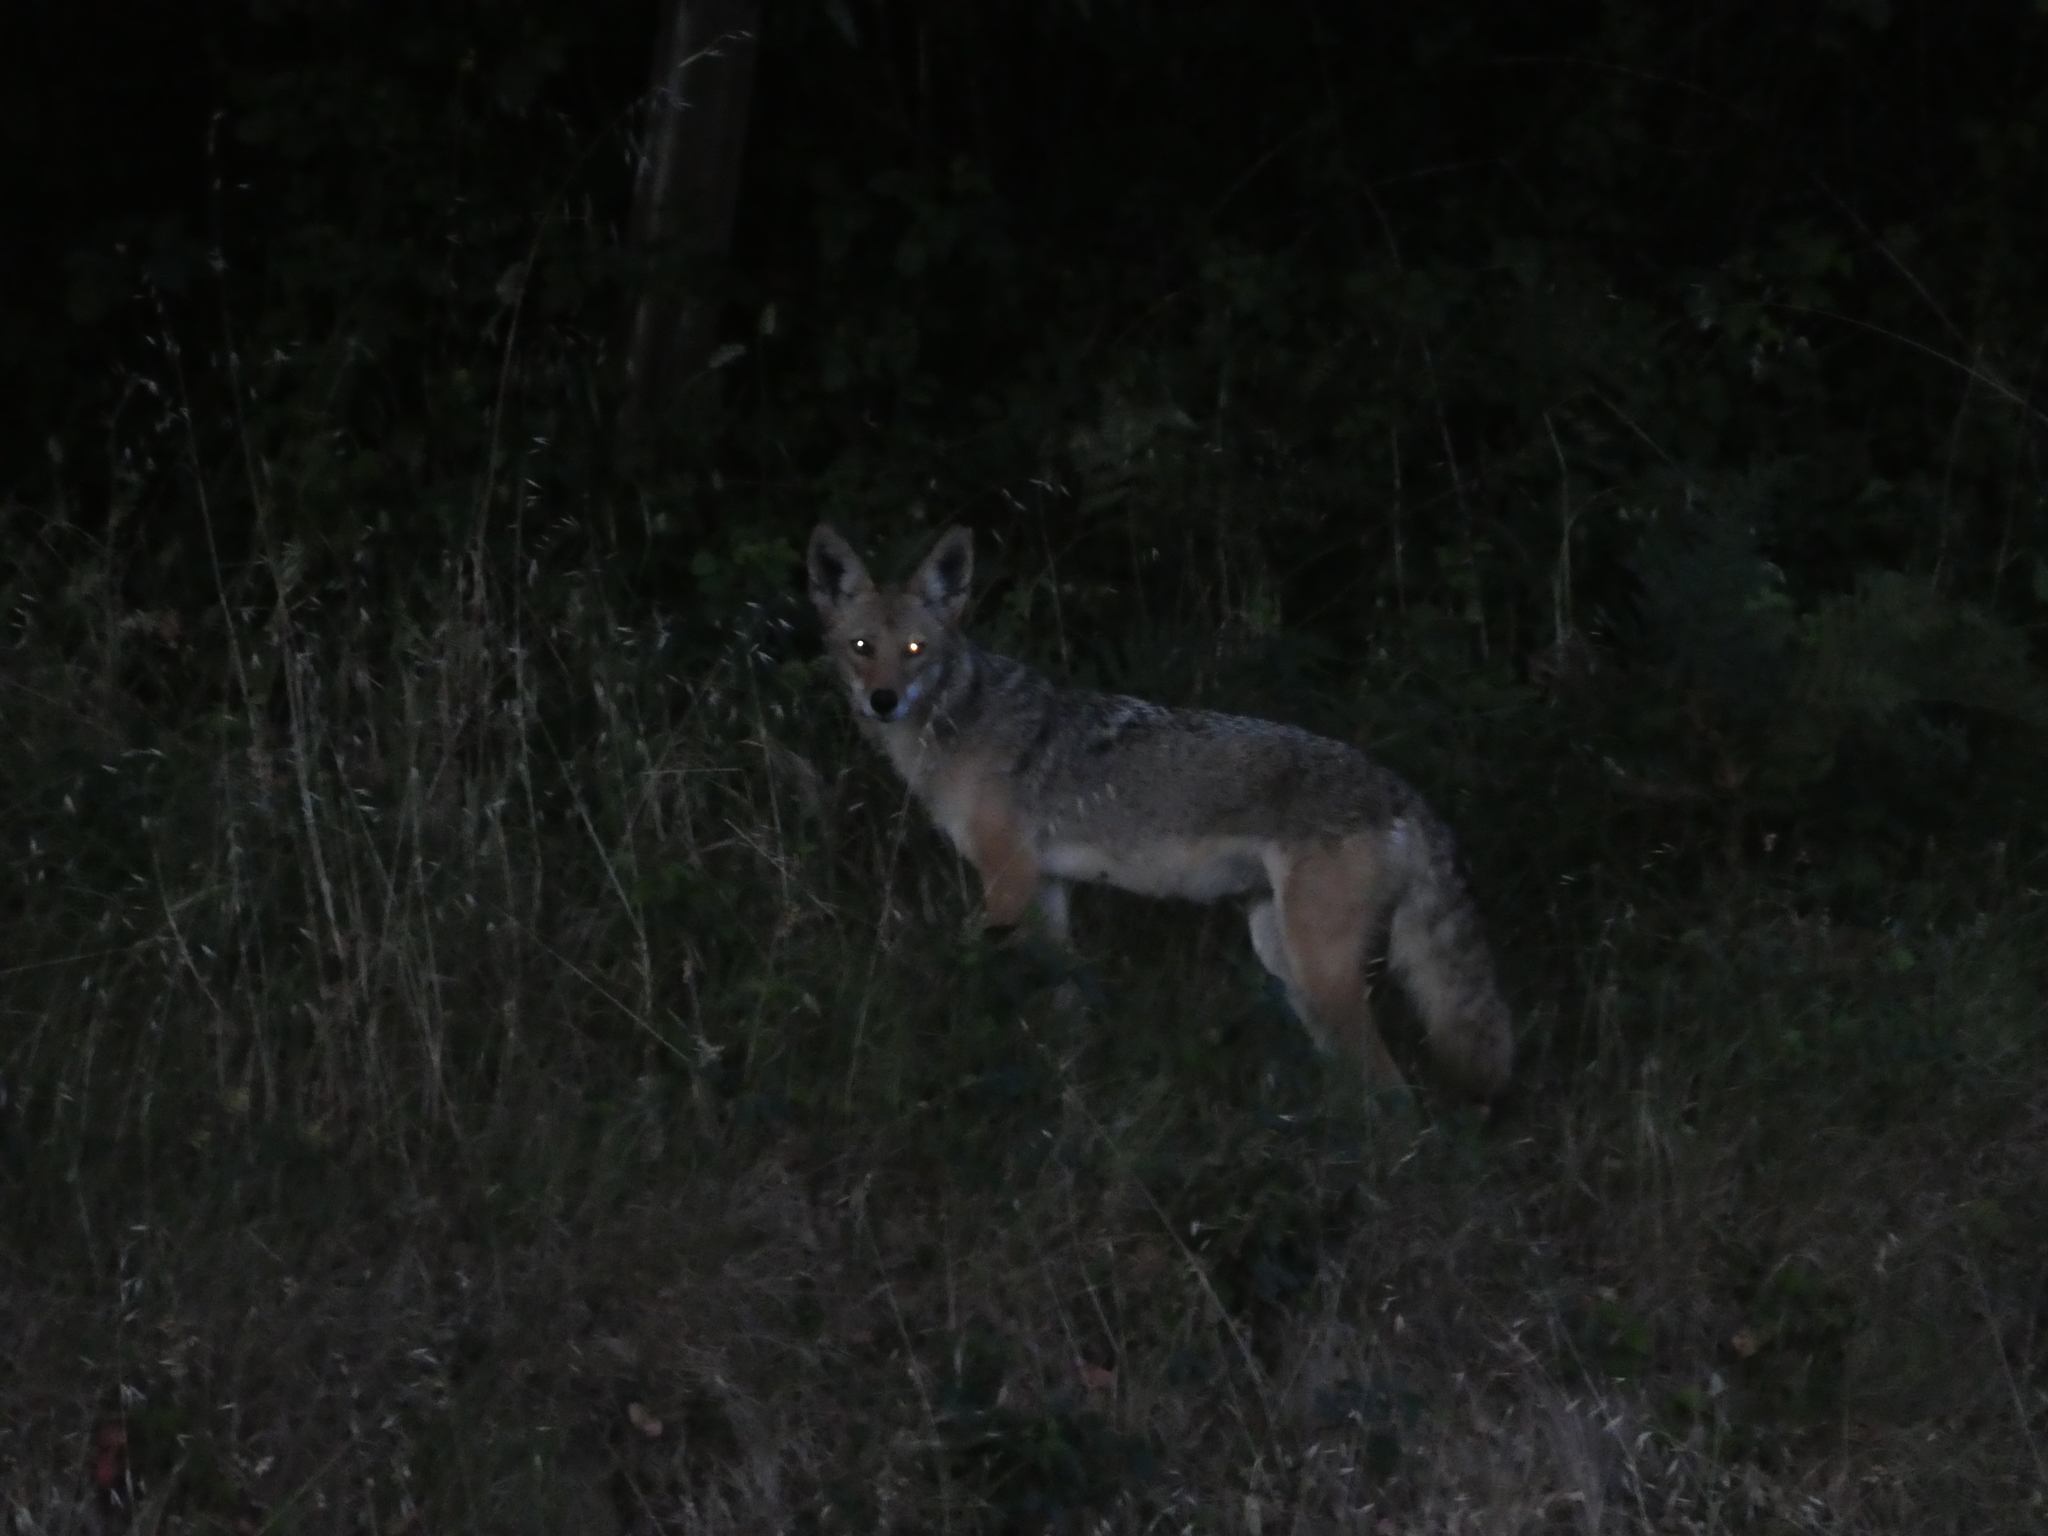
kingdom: Animalia
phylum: Chordata
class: Mammalia
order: Carnivora
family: Canidae
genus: Canis
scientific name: Canis latrans
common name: Coyote
